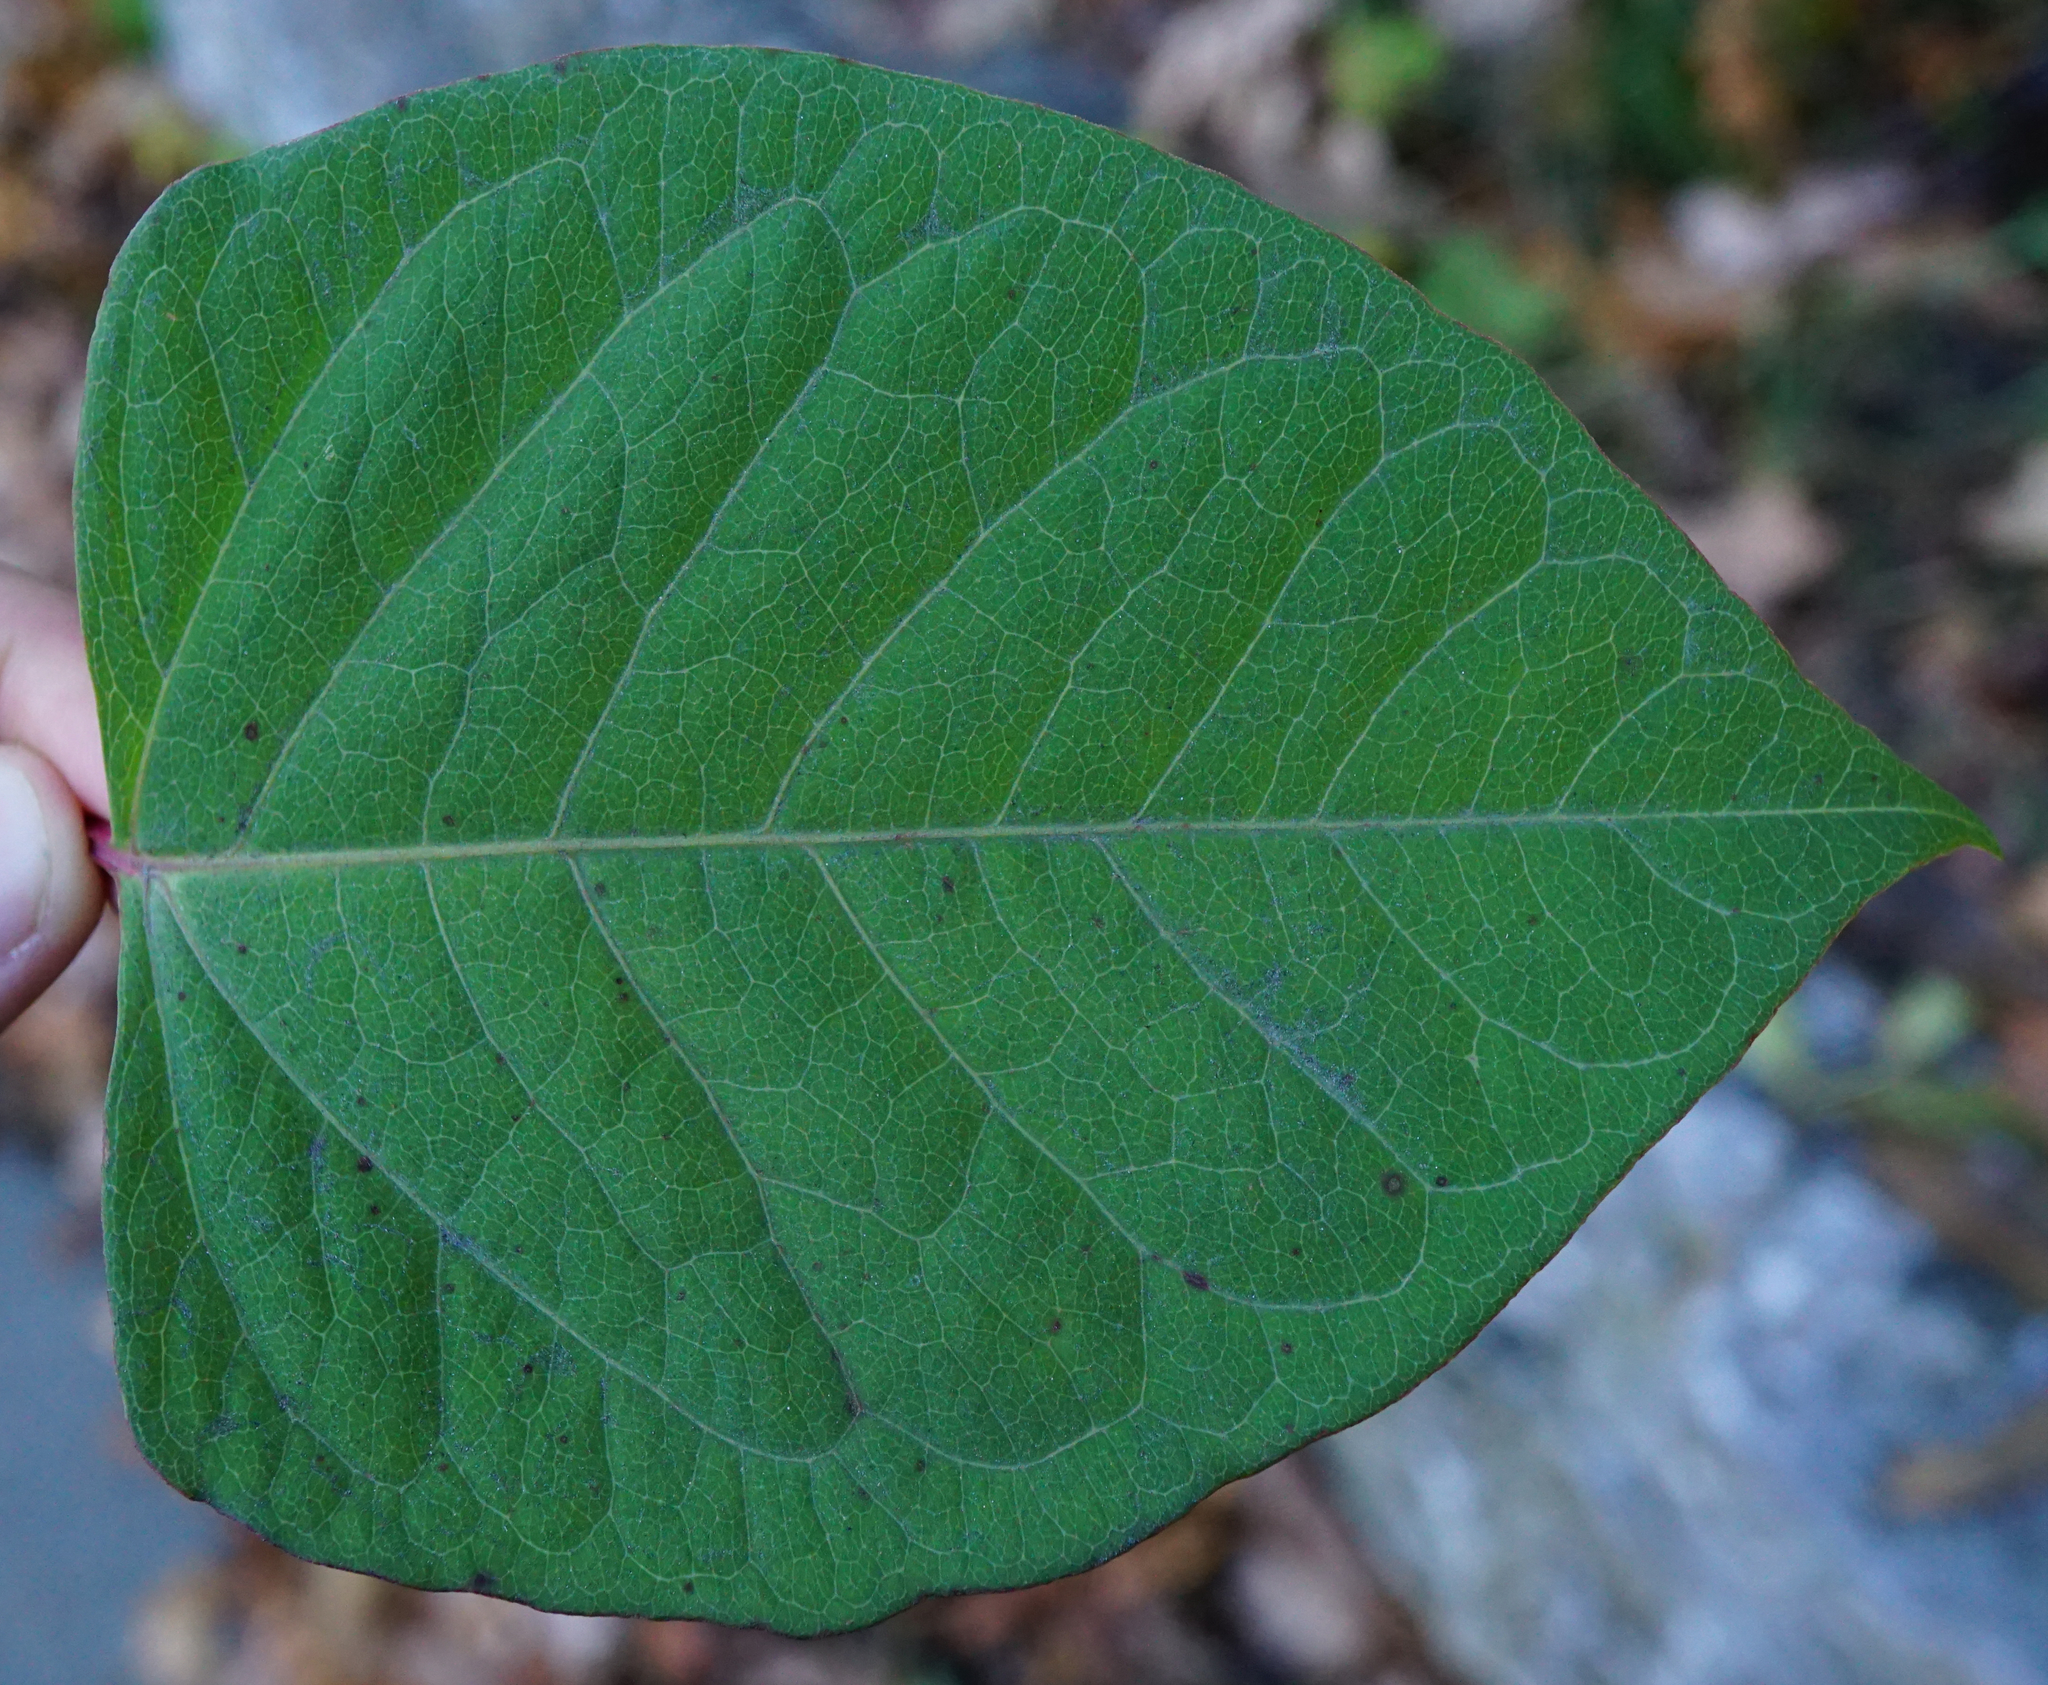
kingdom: Plantae
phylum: Tracheophyta
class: Magnoliopsida
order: Caryophyllales
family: Polygonaceae
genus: Reynoutria
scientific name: Reynoutria japonica
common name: Japanese knotweed
